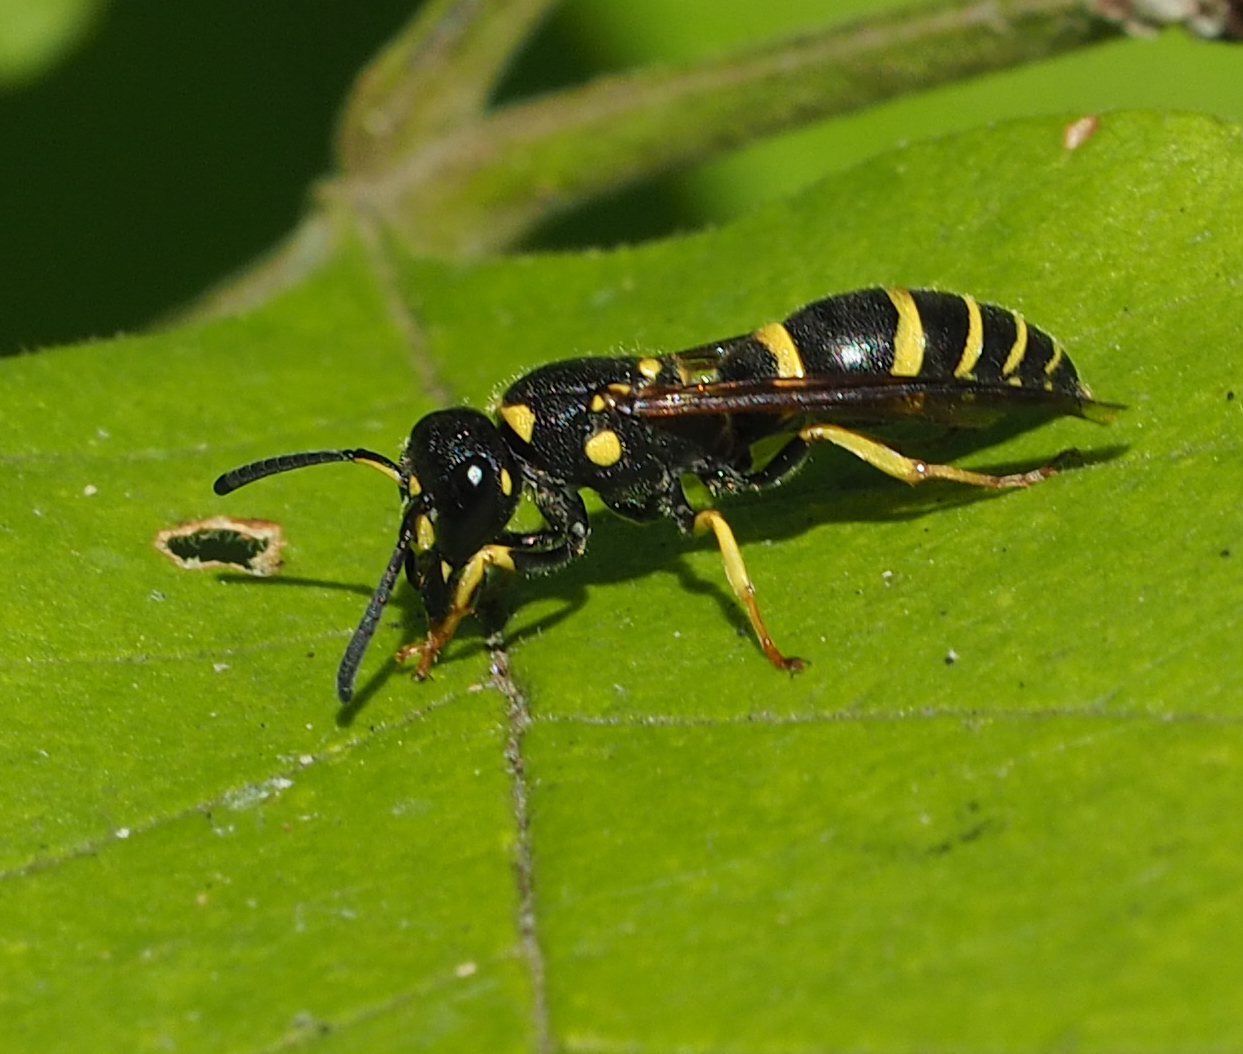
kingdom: Animalia
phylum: Arthropoda
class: Insecta
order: Hymenoptera
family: Vespidae
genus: Ancistrocerus
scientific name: Ancistrocerus adiabatus
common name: Bramble mason wasp
